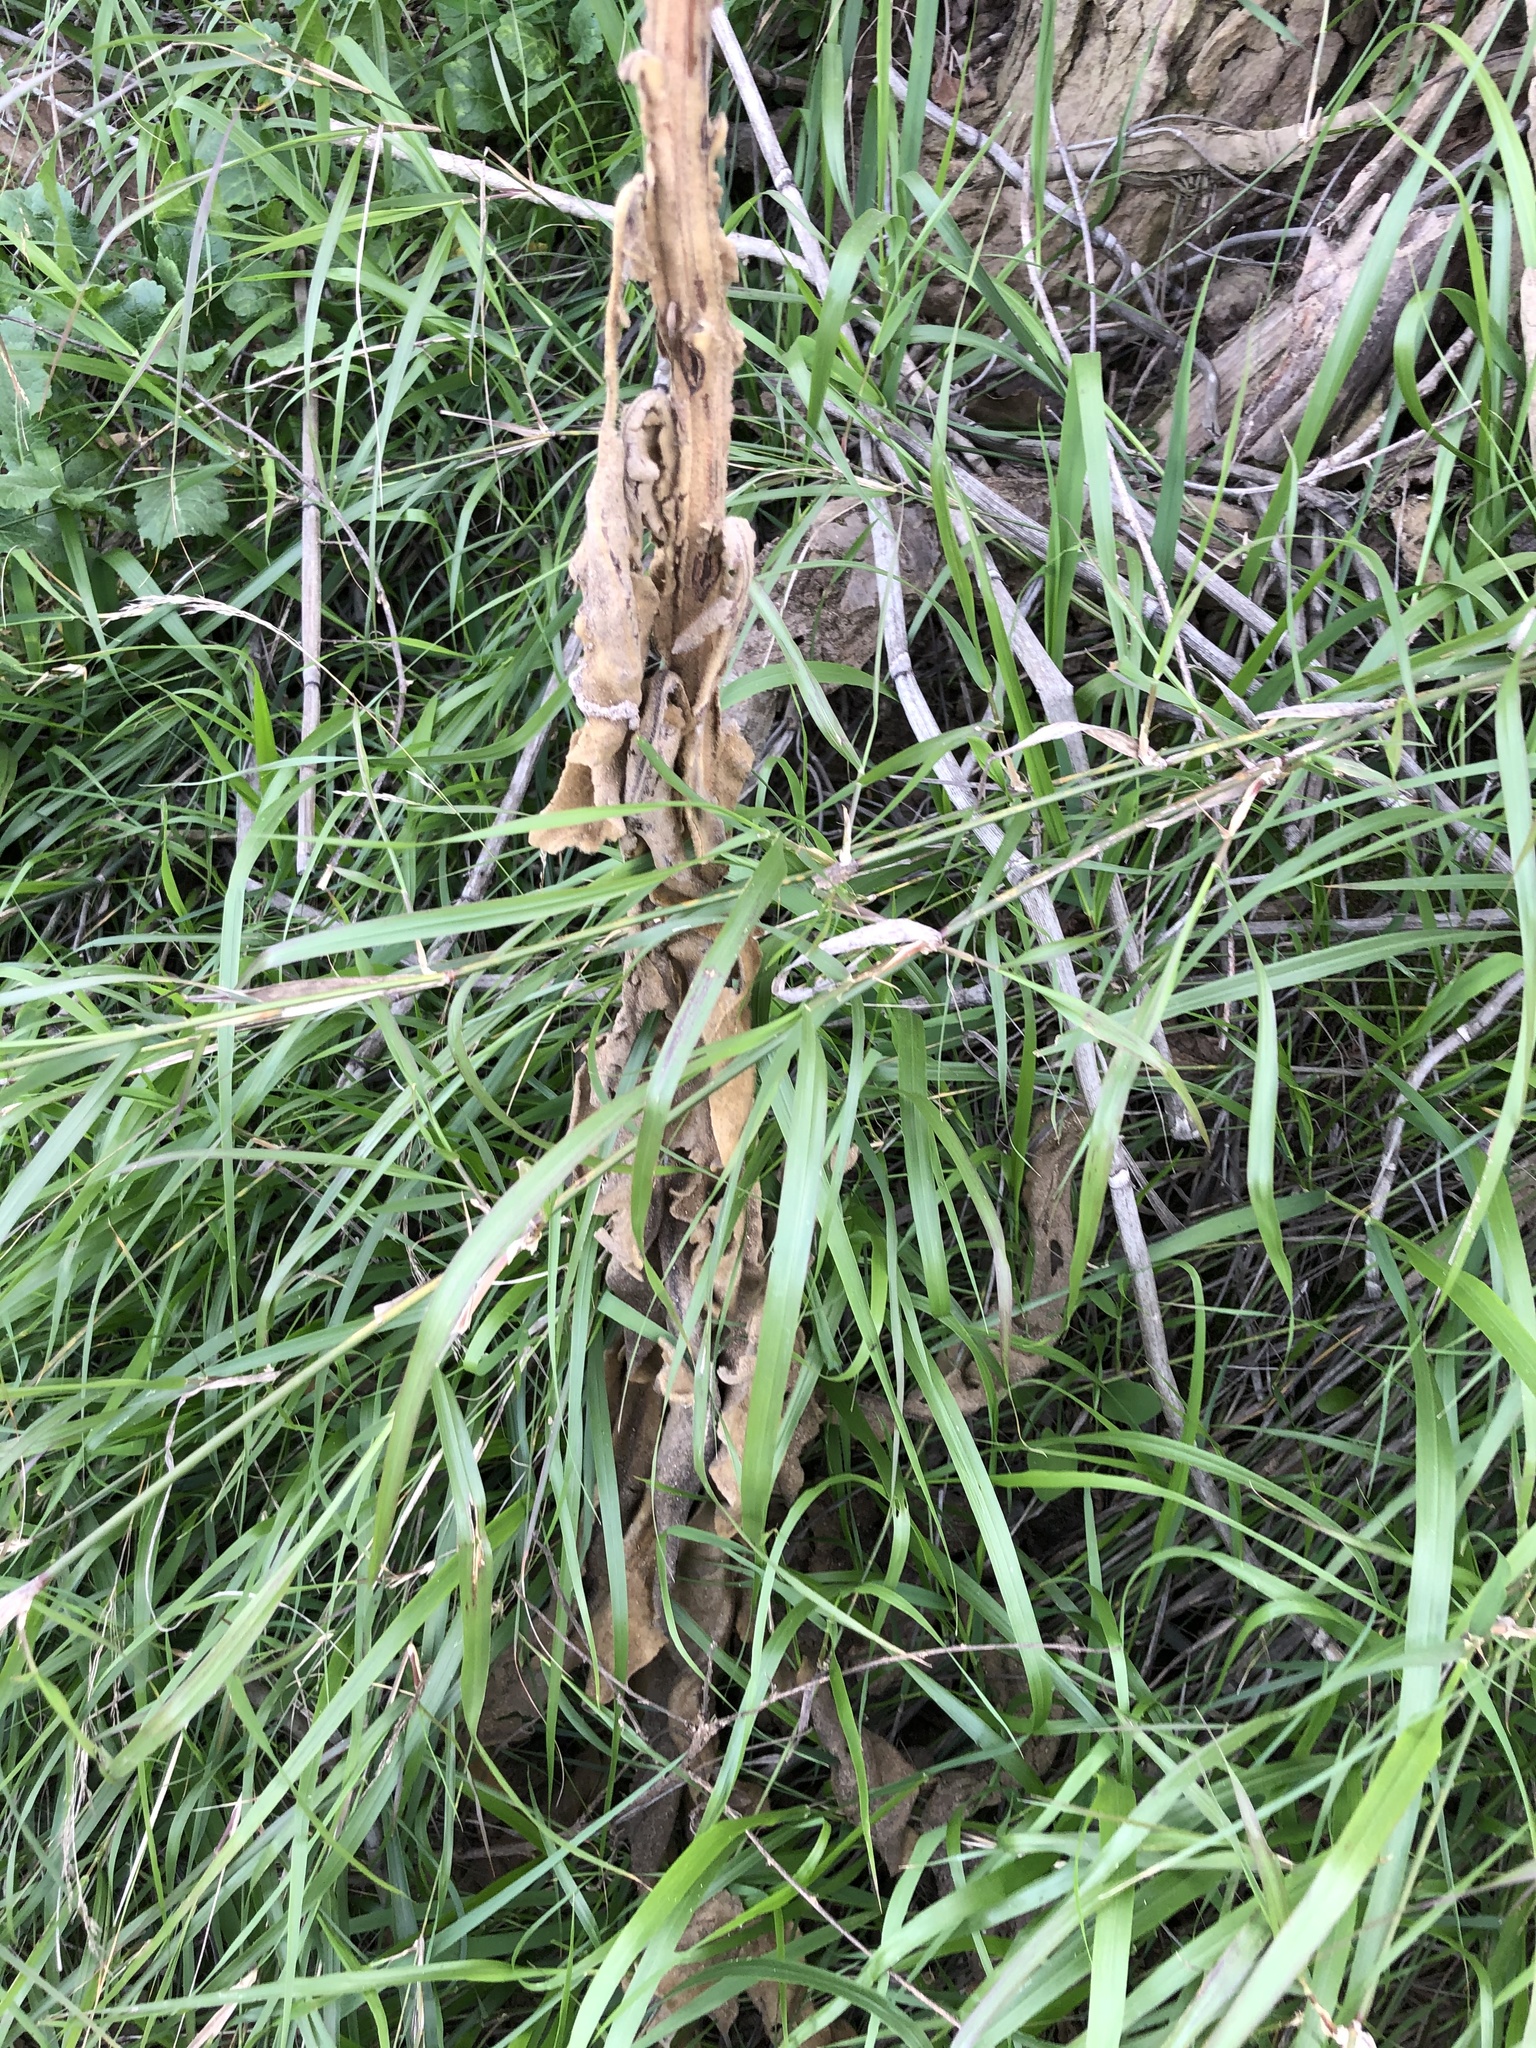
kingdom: Plantae
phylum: Tracheophyta
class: Magnoliopsida
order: Lamiales
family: Scrophulariaceae
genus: Verbascum
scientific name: Verbascum thapsus
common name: Common mullein
